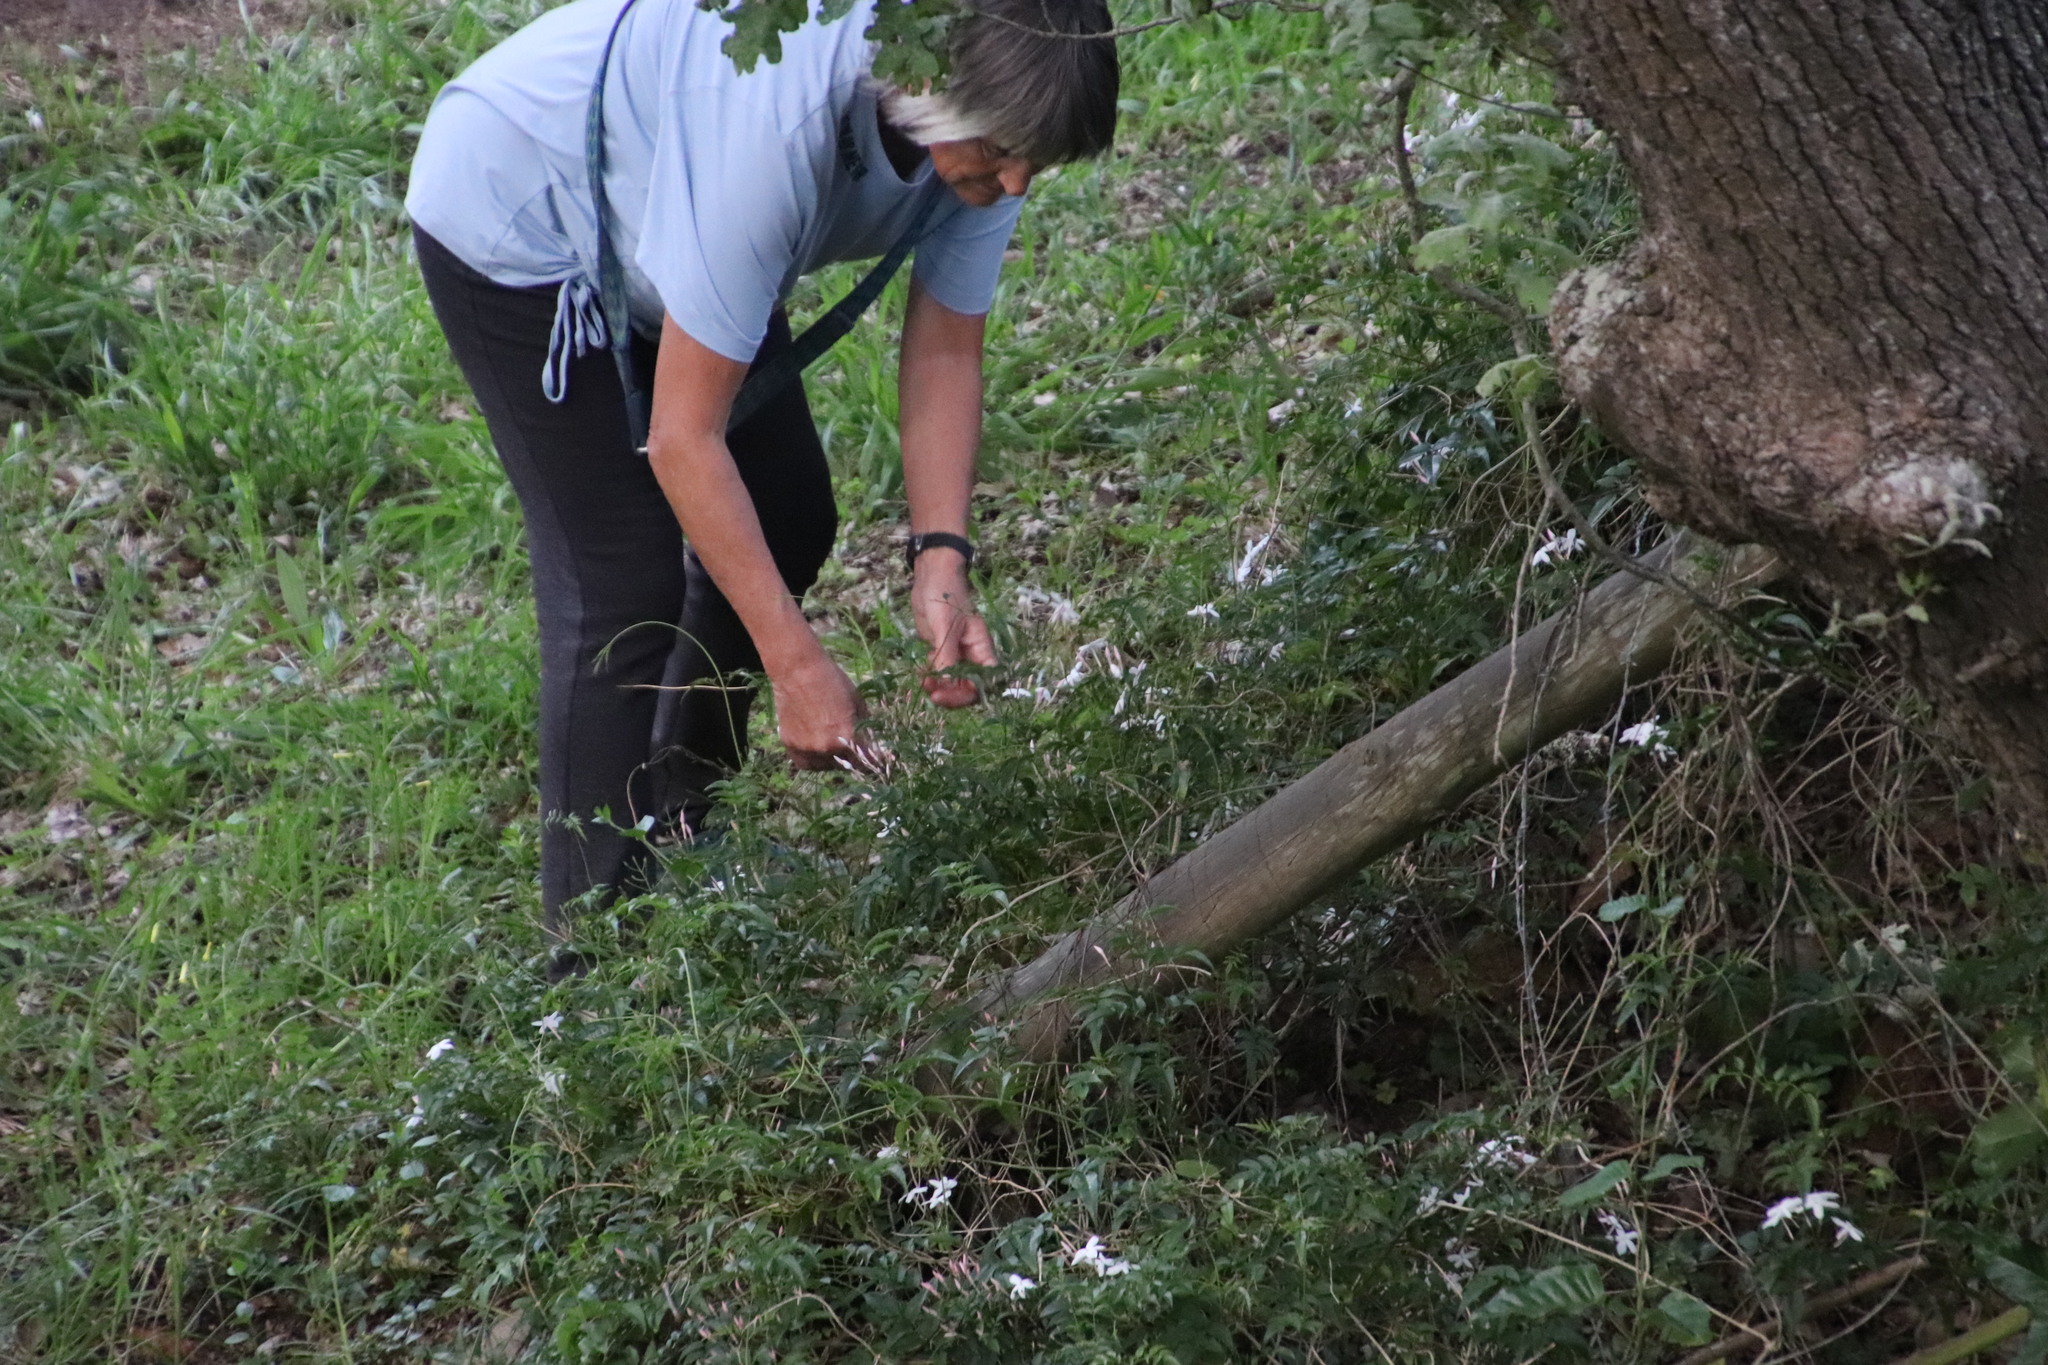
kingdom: Plantae
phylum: Tracheophyta
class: Magnoliopsida
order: Lamiales
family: Oleaceae
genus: Jasminum
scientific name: Jasminum polyanthum
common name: Pink jasmine
